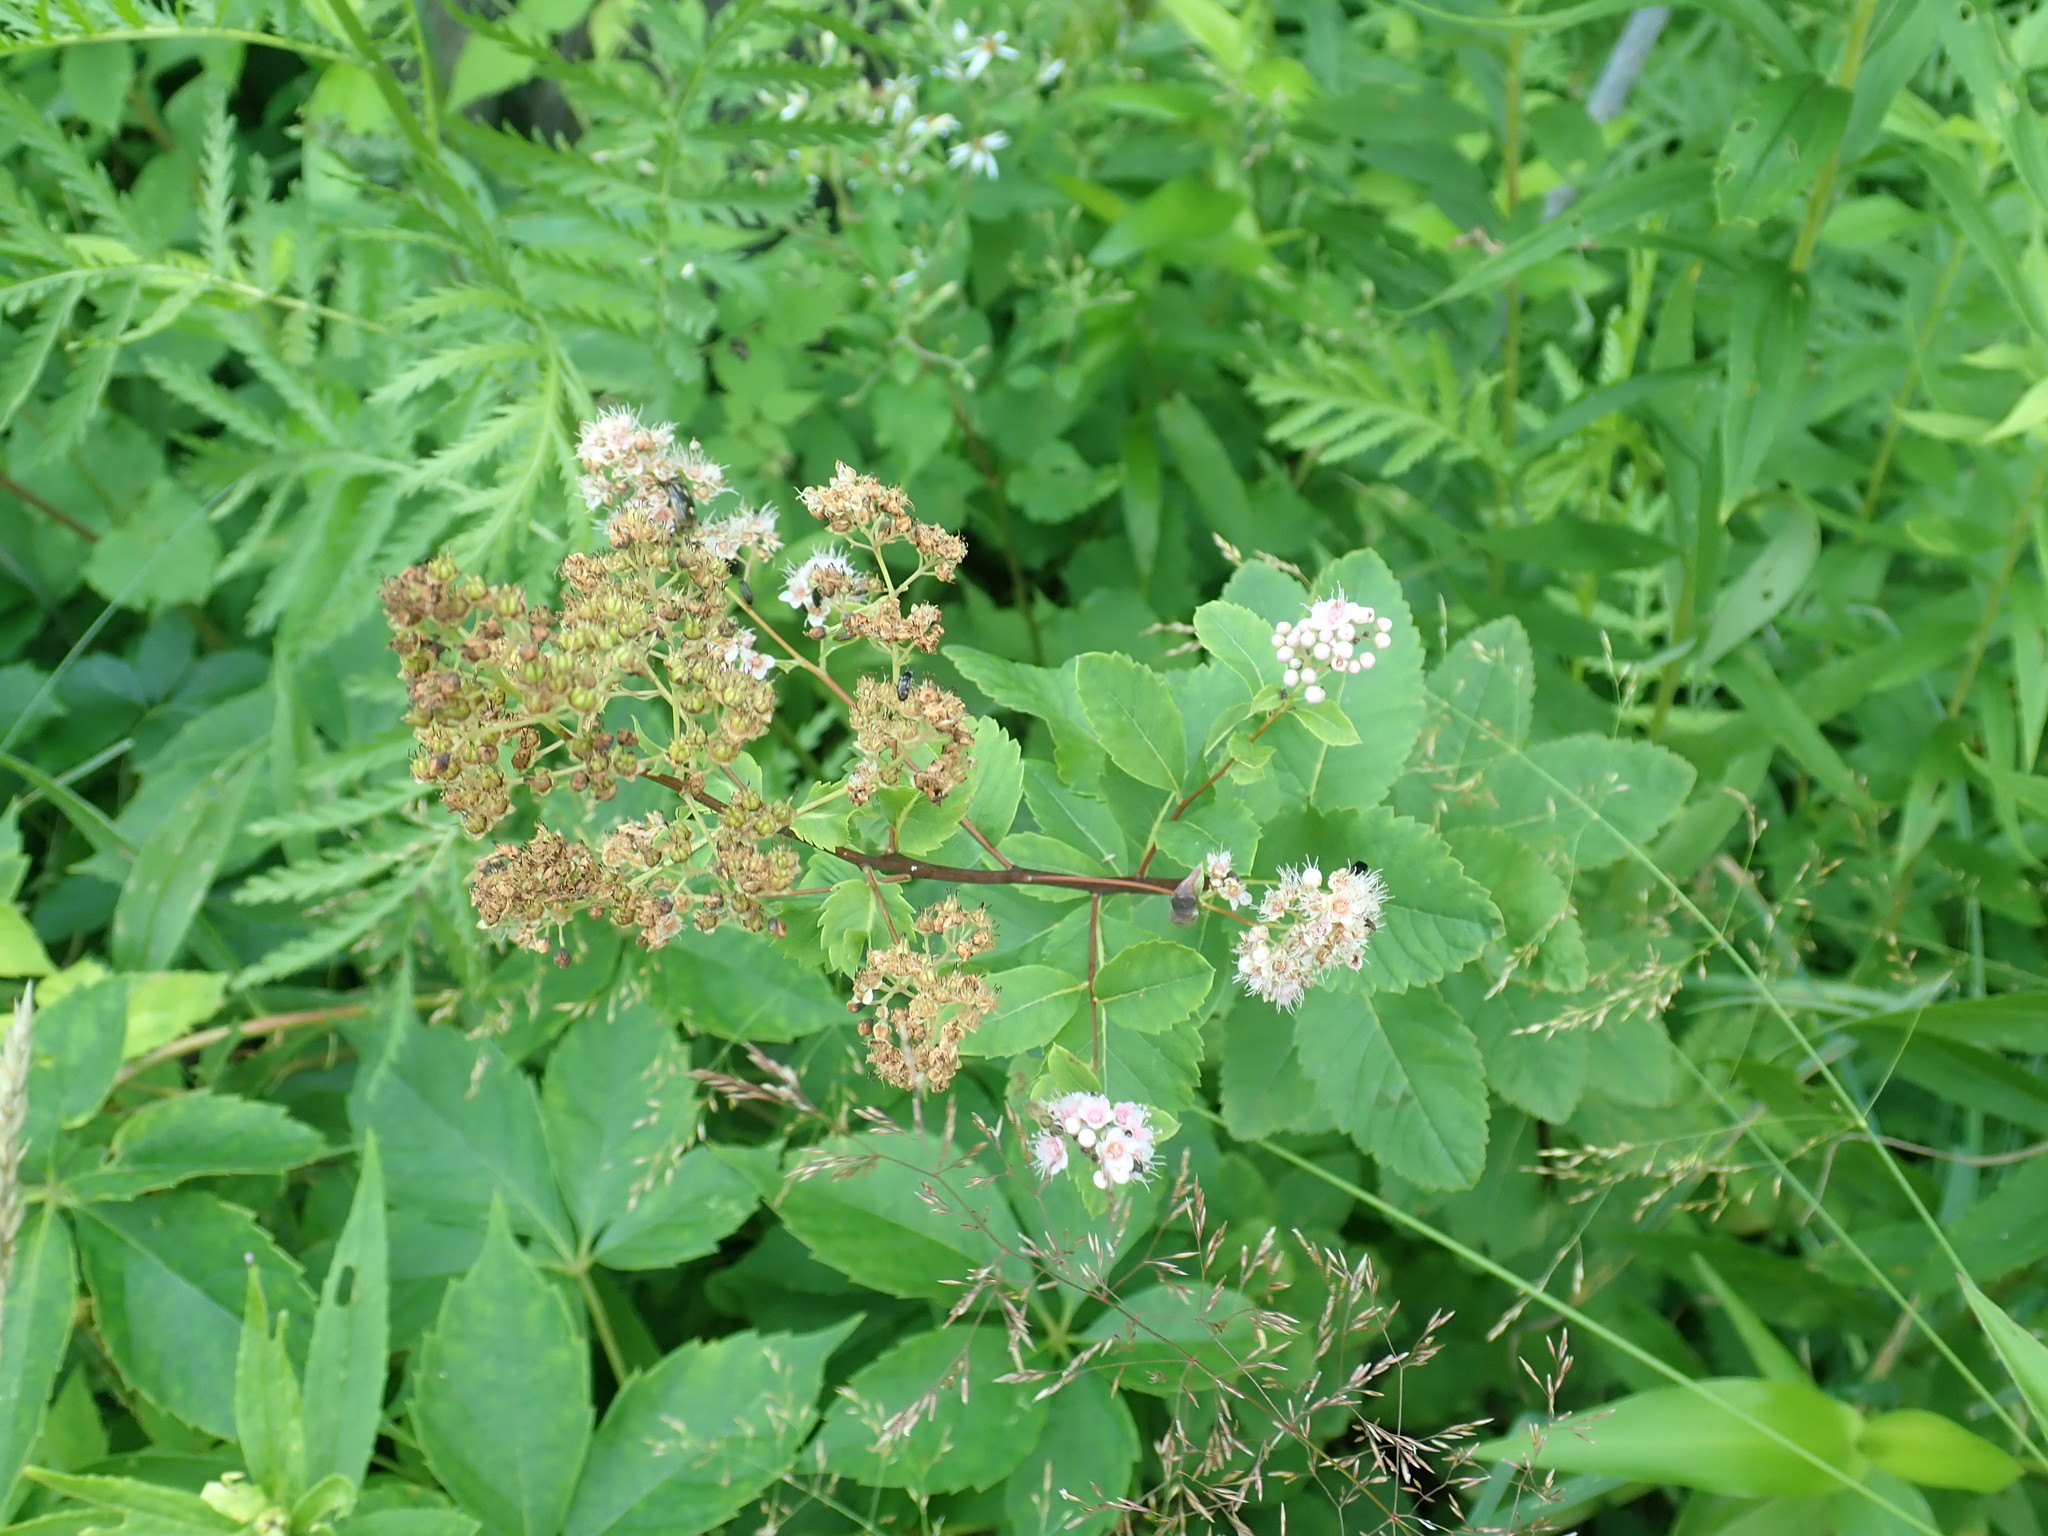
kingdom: Plantae
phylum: Tracheophyta
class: Magnoliopsida
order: Rosales
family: Rosaceae
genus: Spiraea
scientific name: Spiraea alba
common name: Pale bridewort
